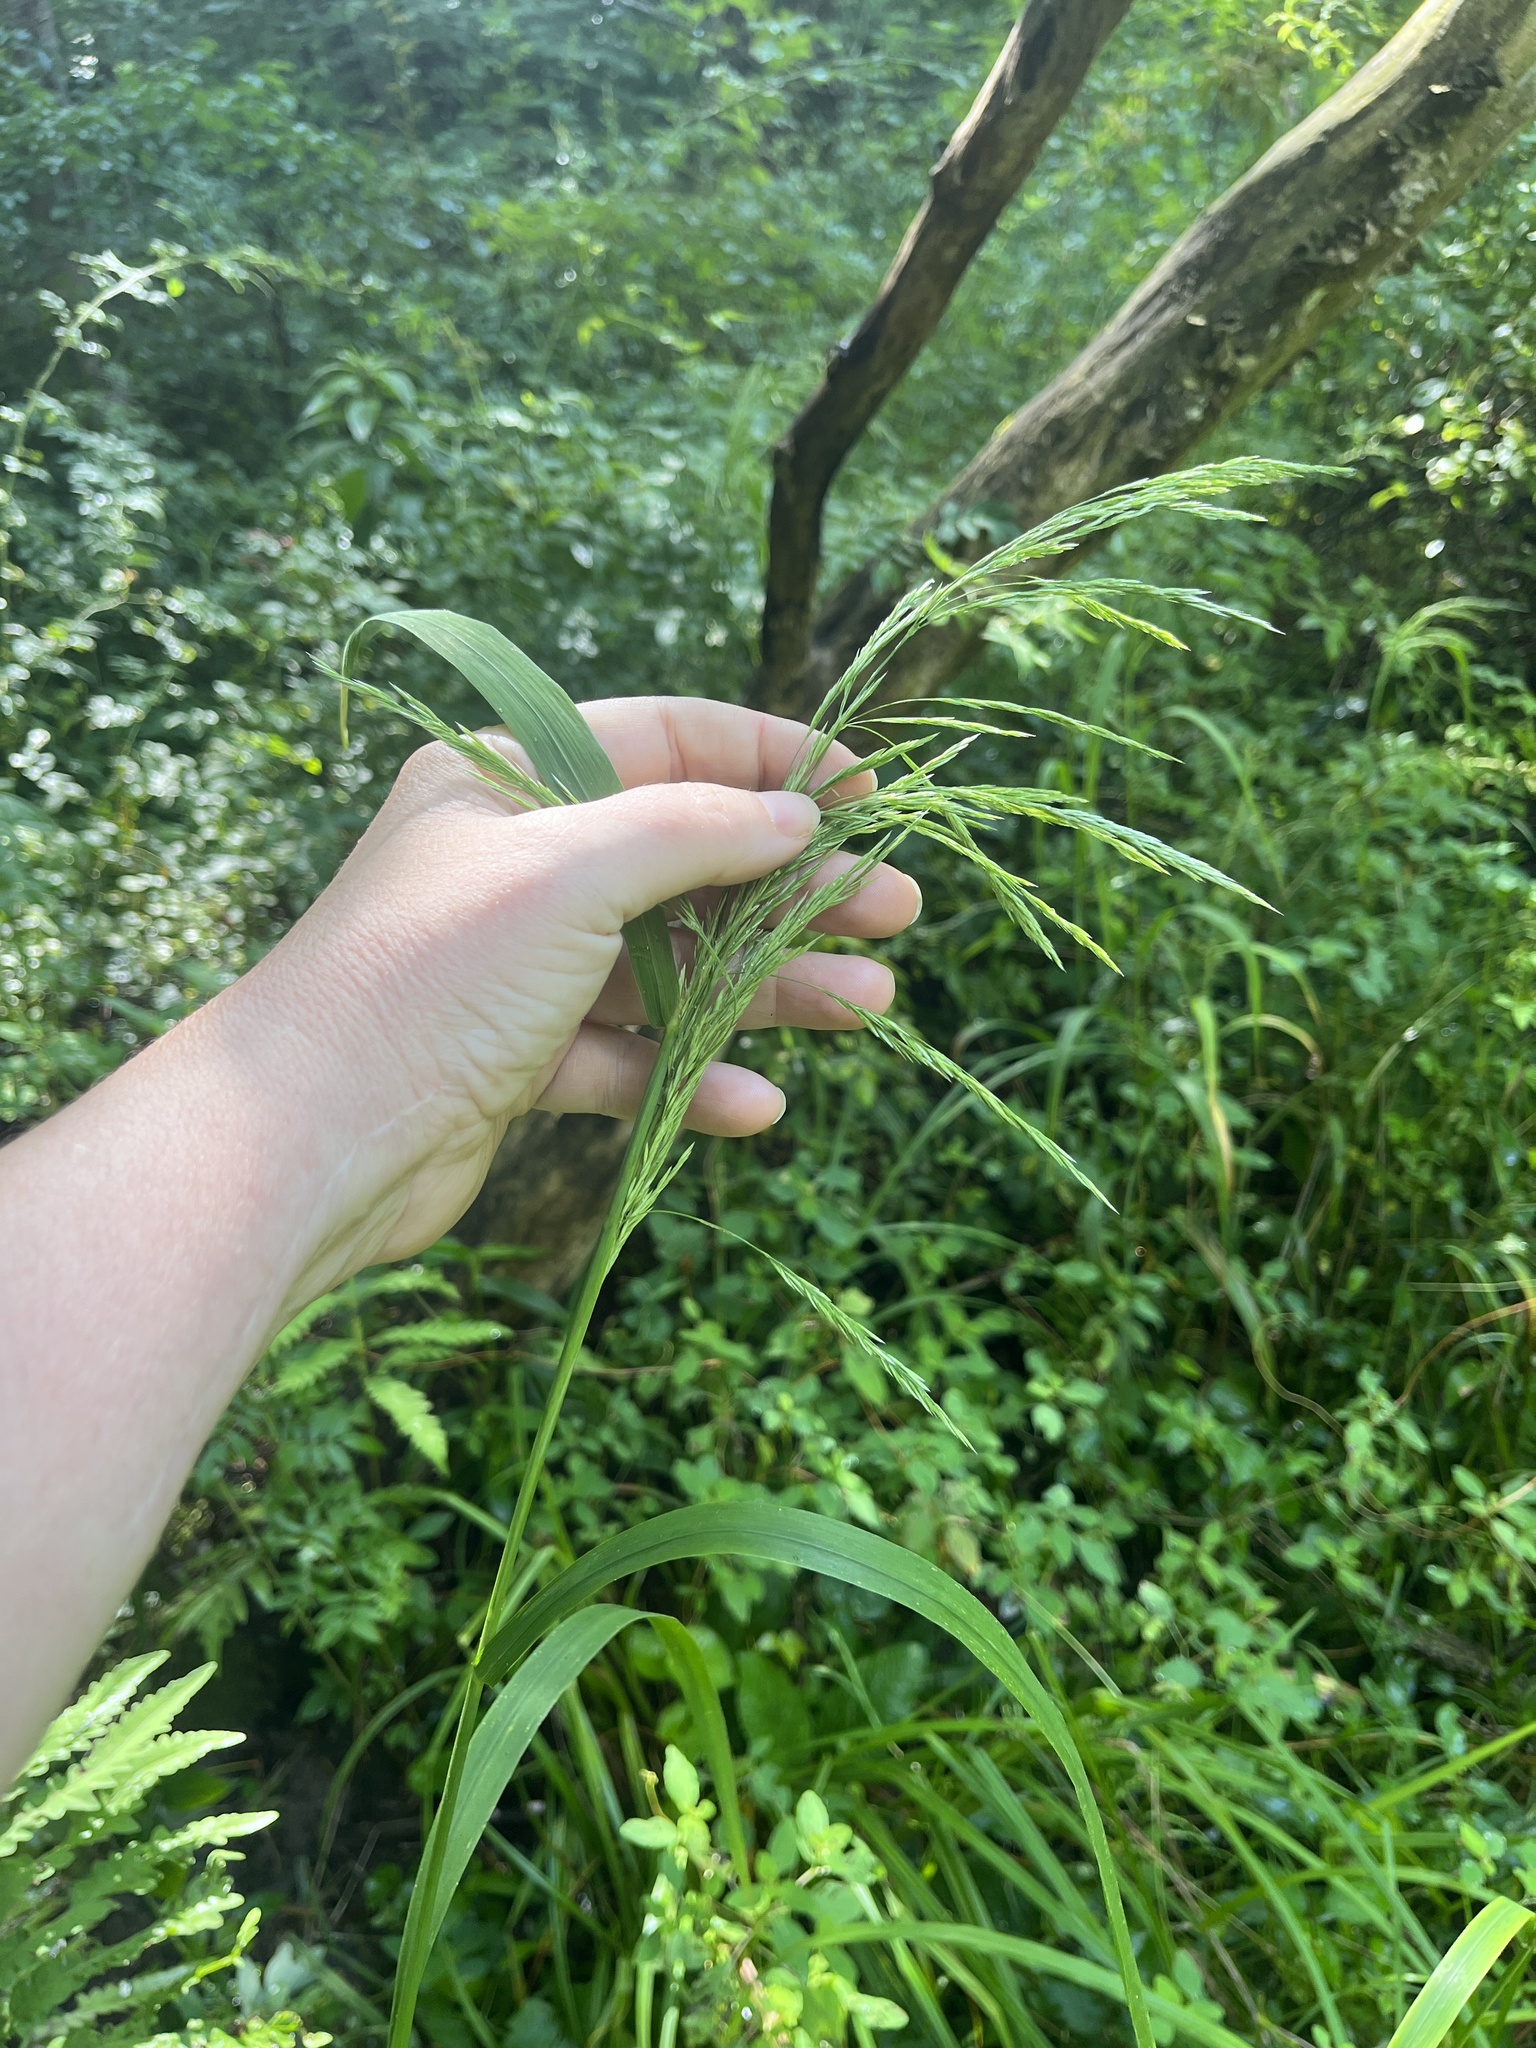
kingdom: Plantae
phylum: Tracheophyta
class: Liliopsida
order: Poales
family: Poaceae
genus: Cinna
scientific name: Cinna arundinacea
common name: Stout woodreed
